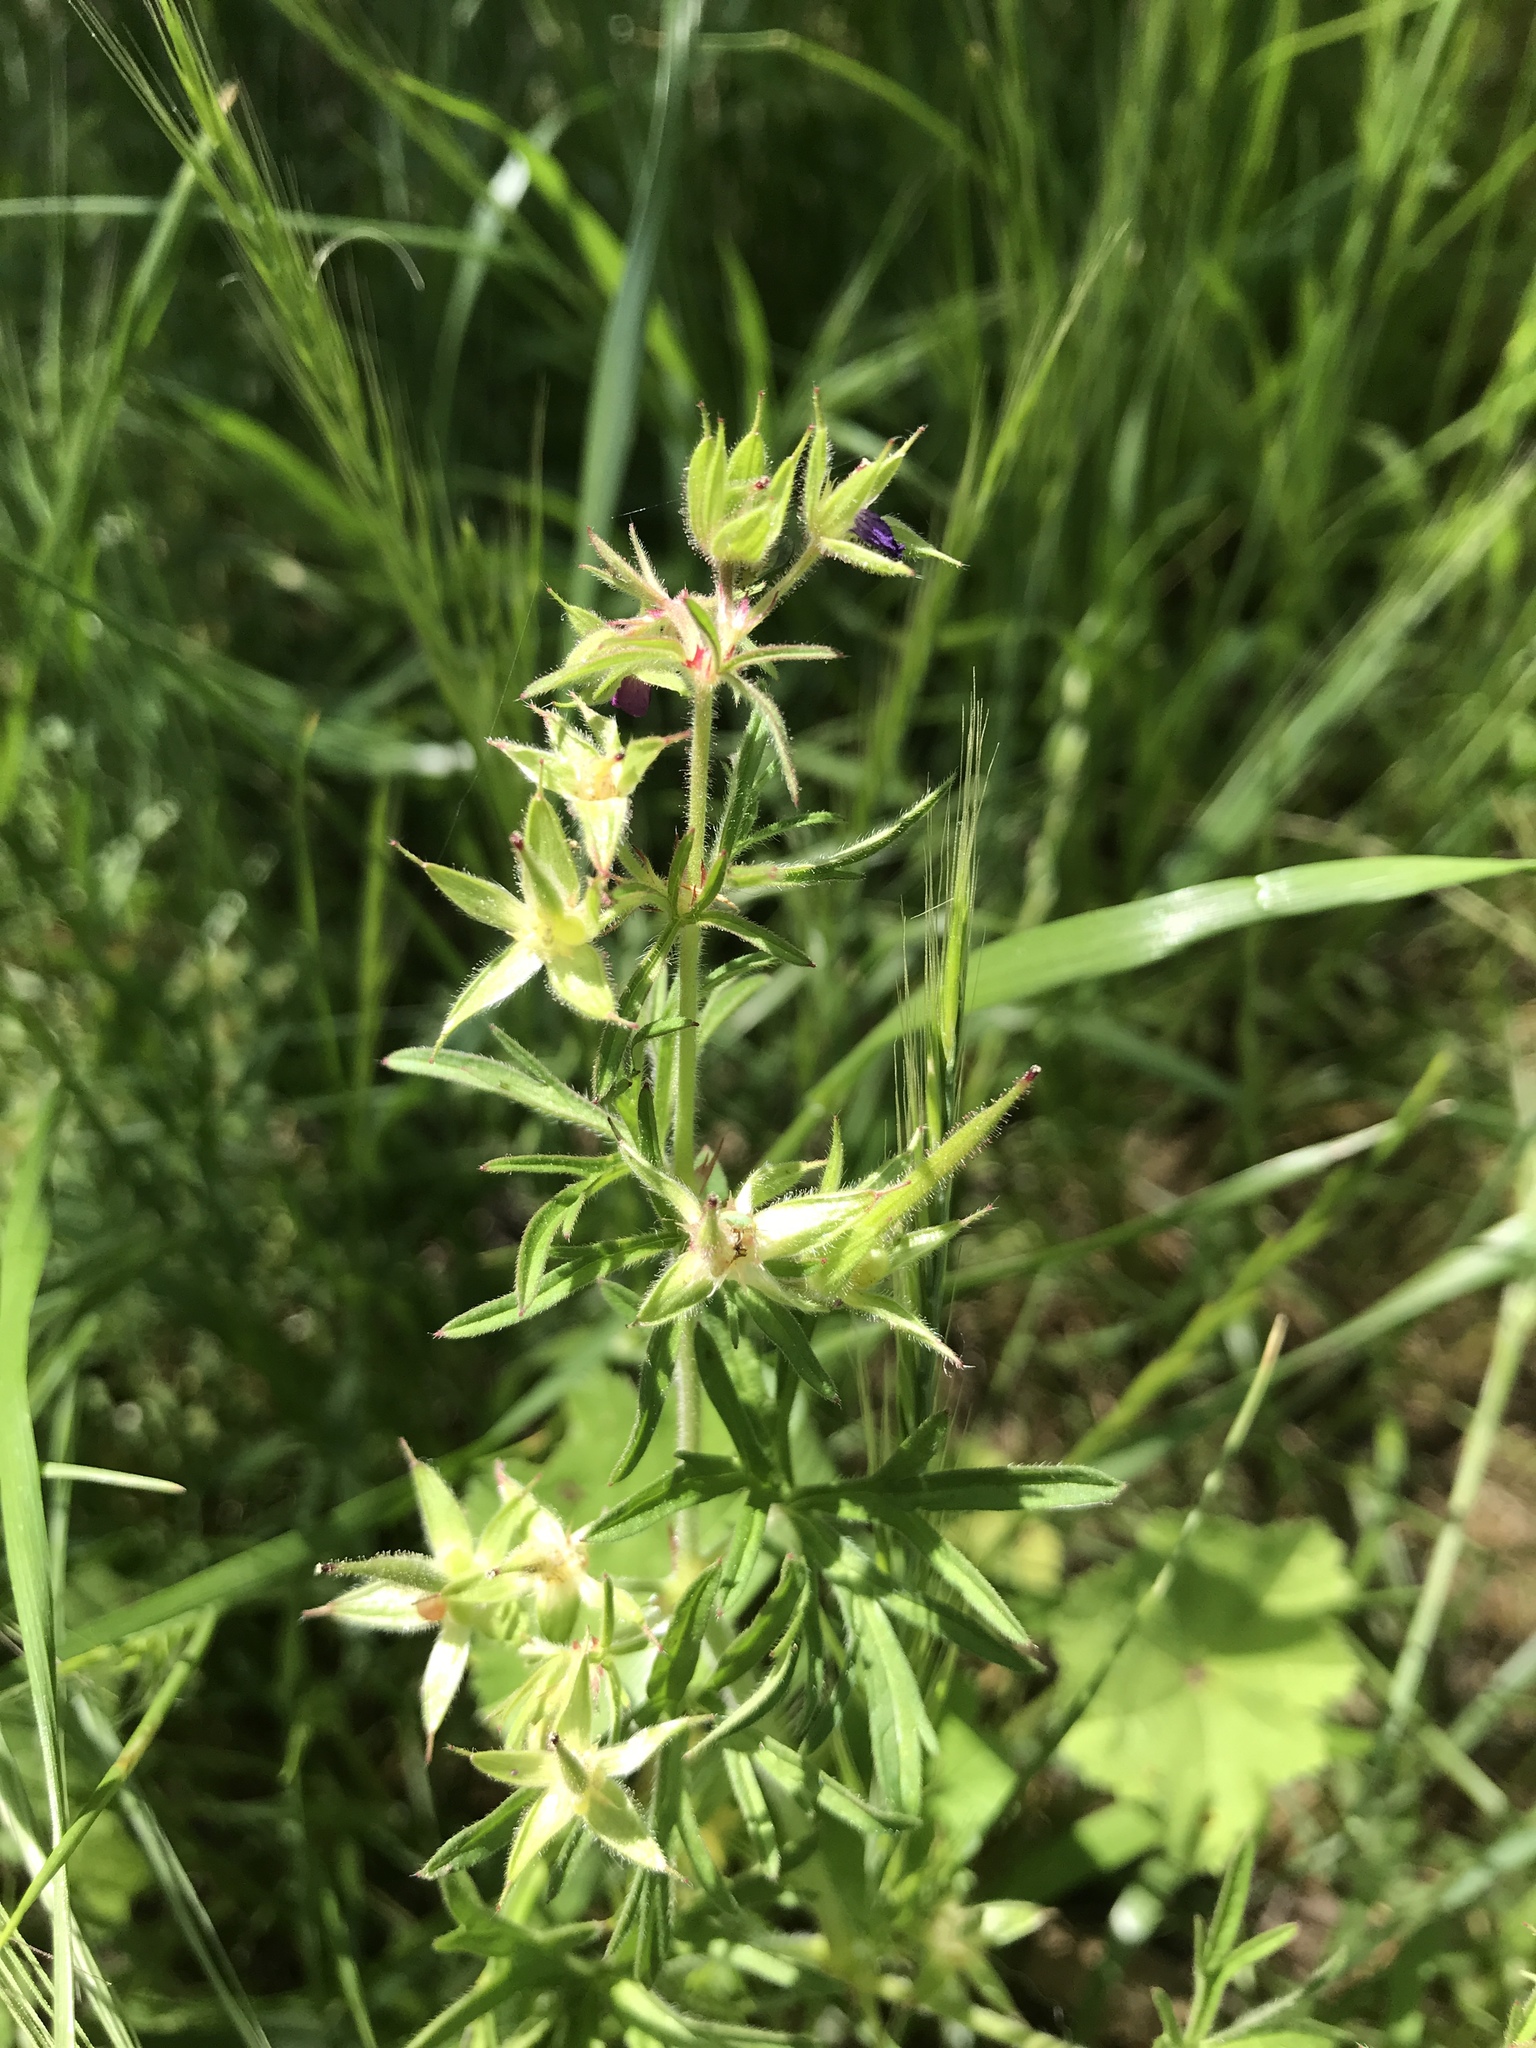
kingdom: Plantae
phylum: Tracheophyta
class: Magnoliopsida
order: Geraniales
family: Geraniaceae
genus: Geranium
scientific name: Geranium dissectum
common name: Cut-leaved crane's-bill
